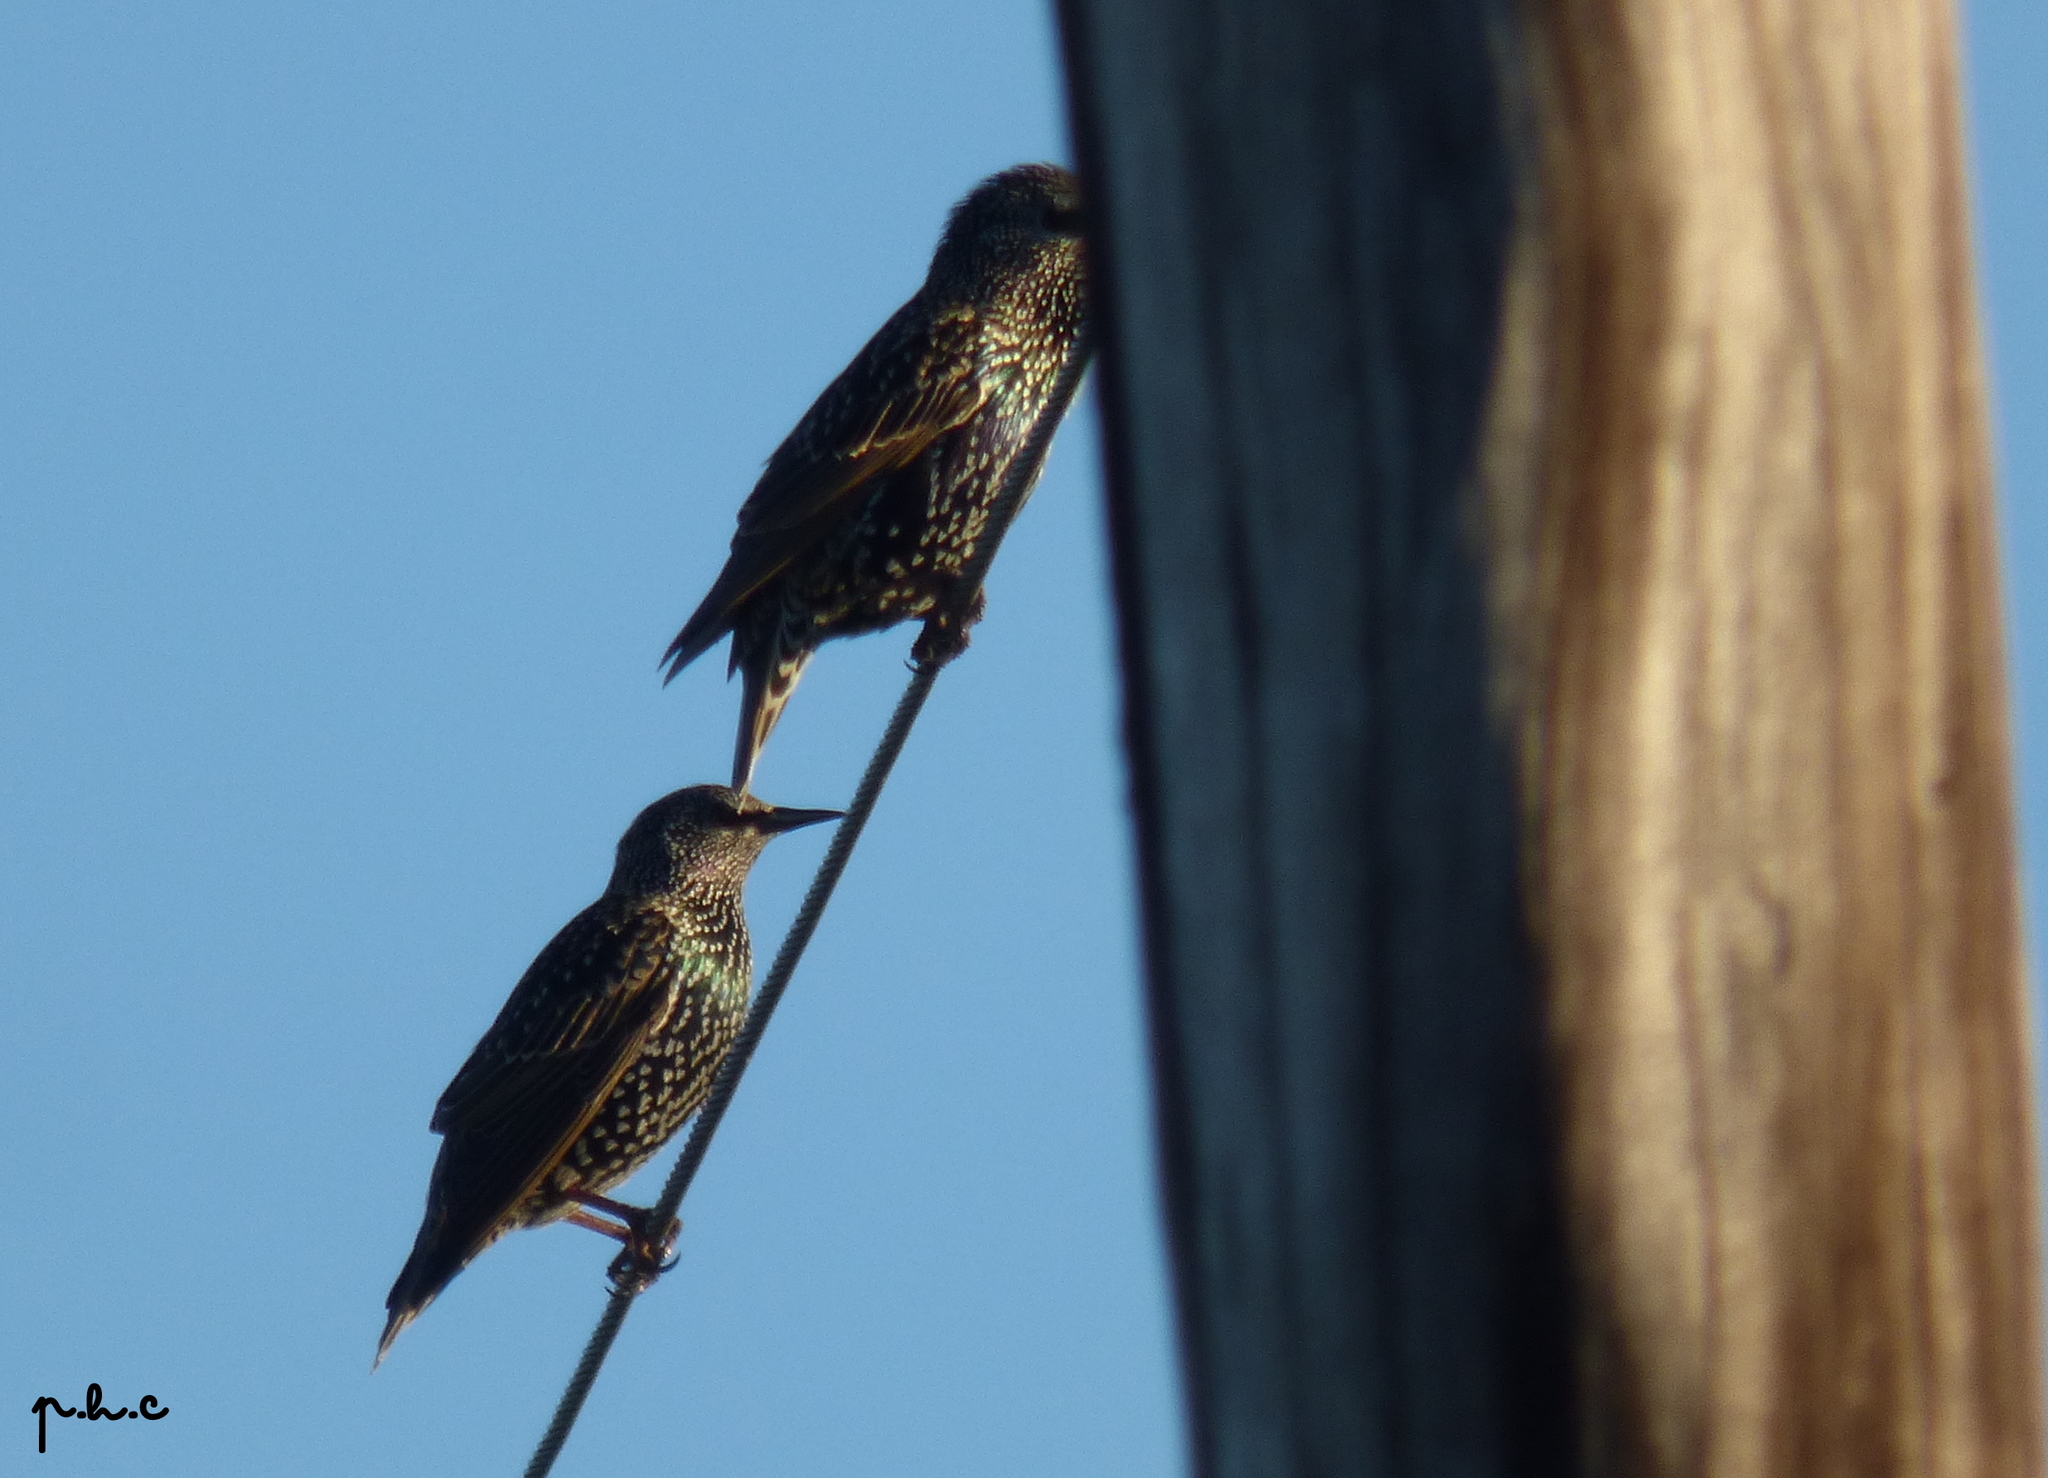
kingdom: Animalia
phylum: Chordata
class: Aves
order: Passeriformes
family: Sturnidae
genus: Sturnus
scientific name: Sturnus vulgaris
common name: Common starling
